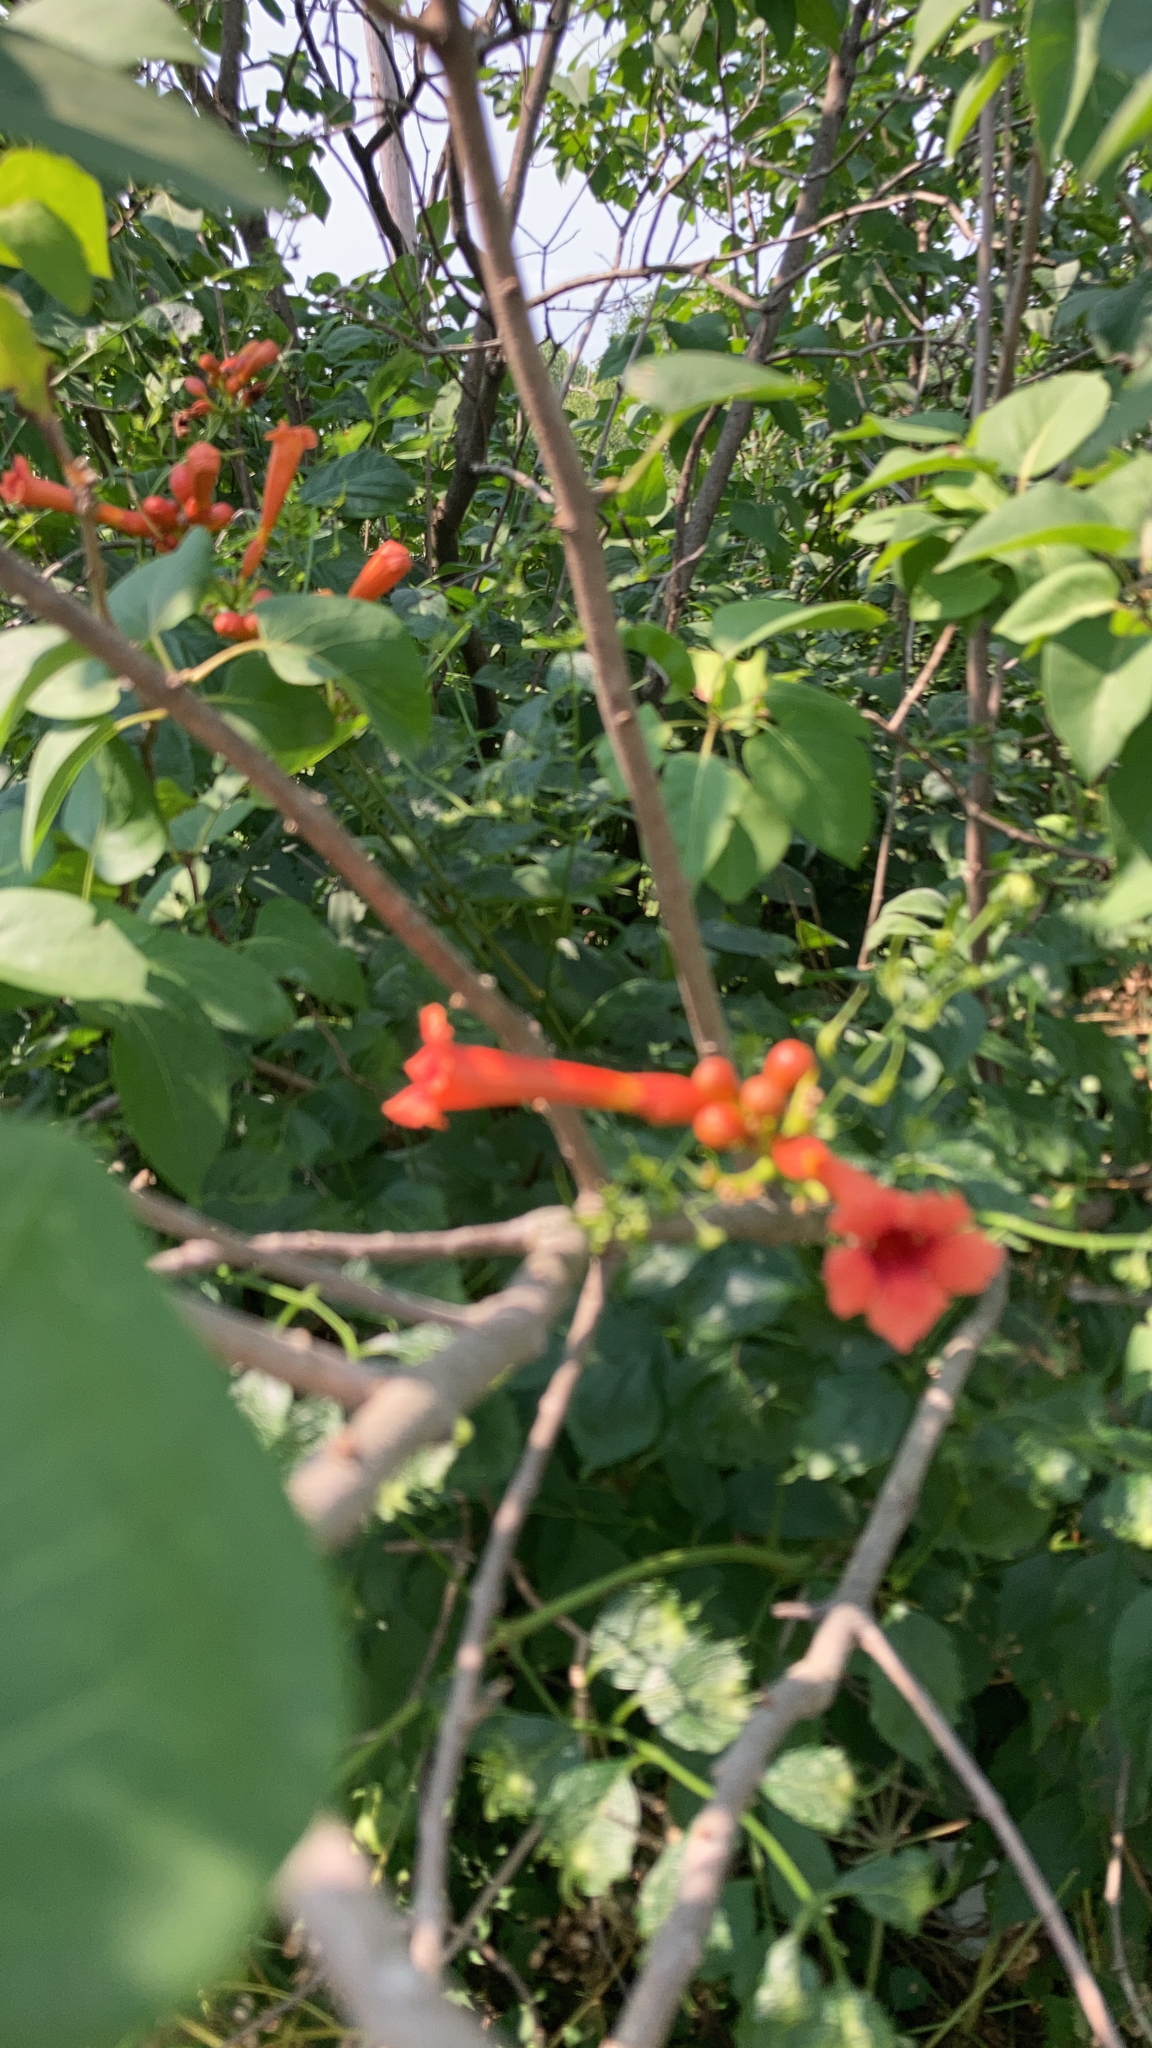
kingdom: Plantae
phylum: Tracheophyta
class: Magnoliopsida
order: Lamiales
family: Bignoniaceae
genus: Campsis
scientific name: Campsis radicans
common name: Trumpet-creeper
